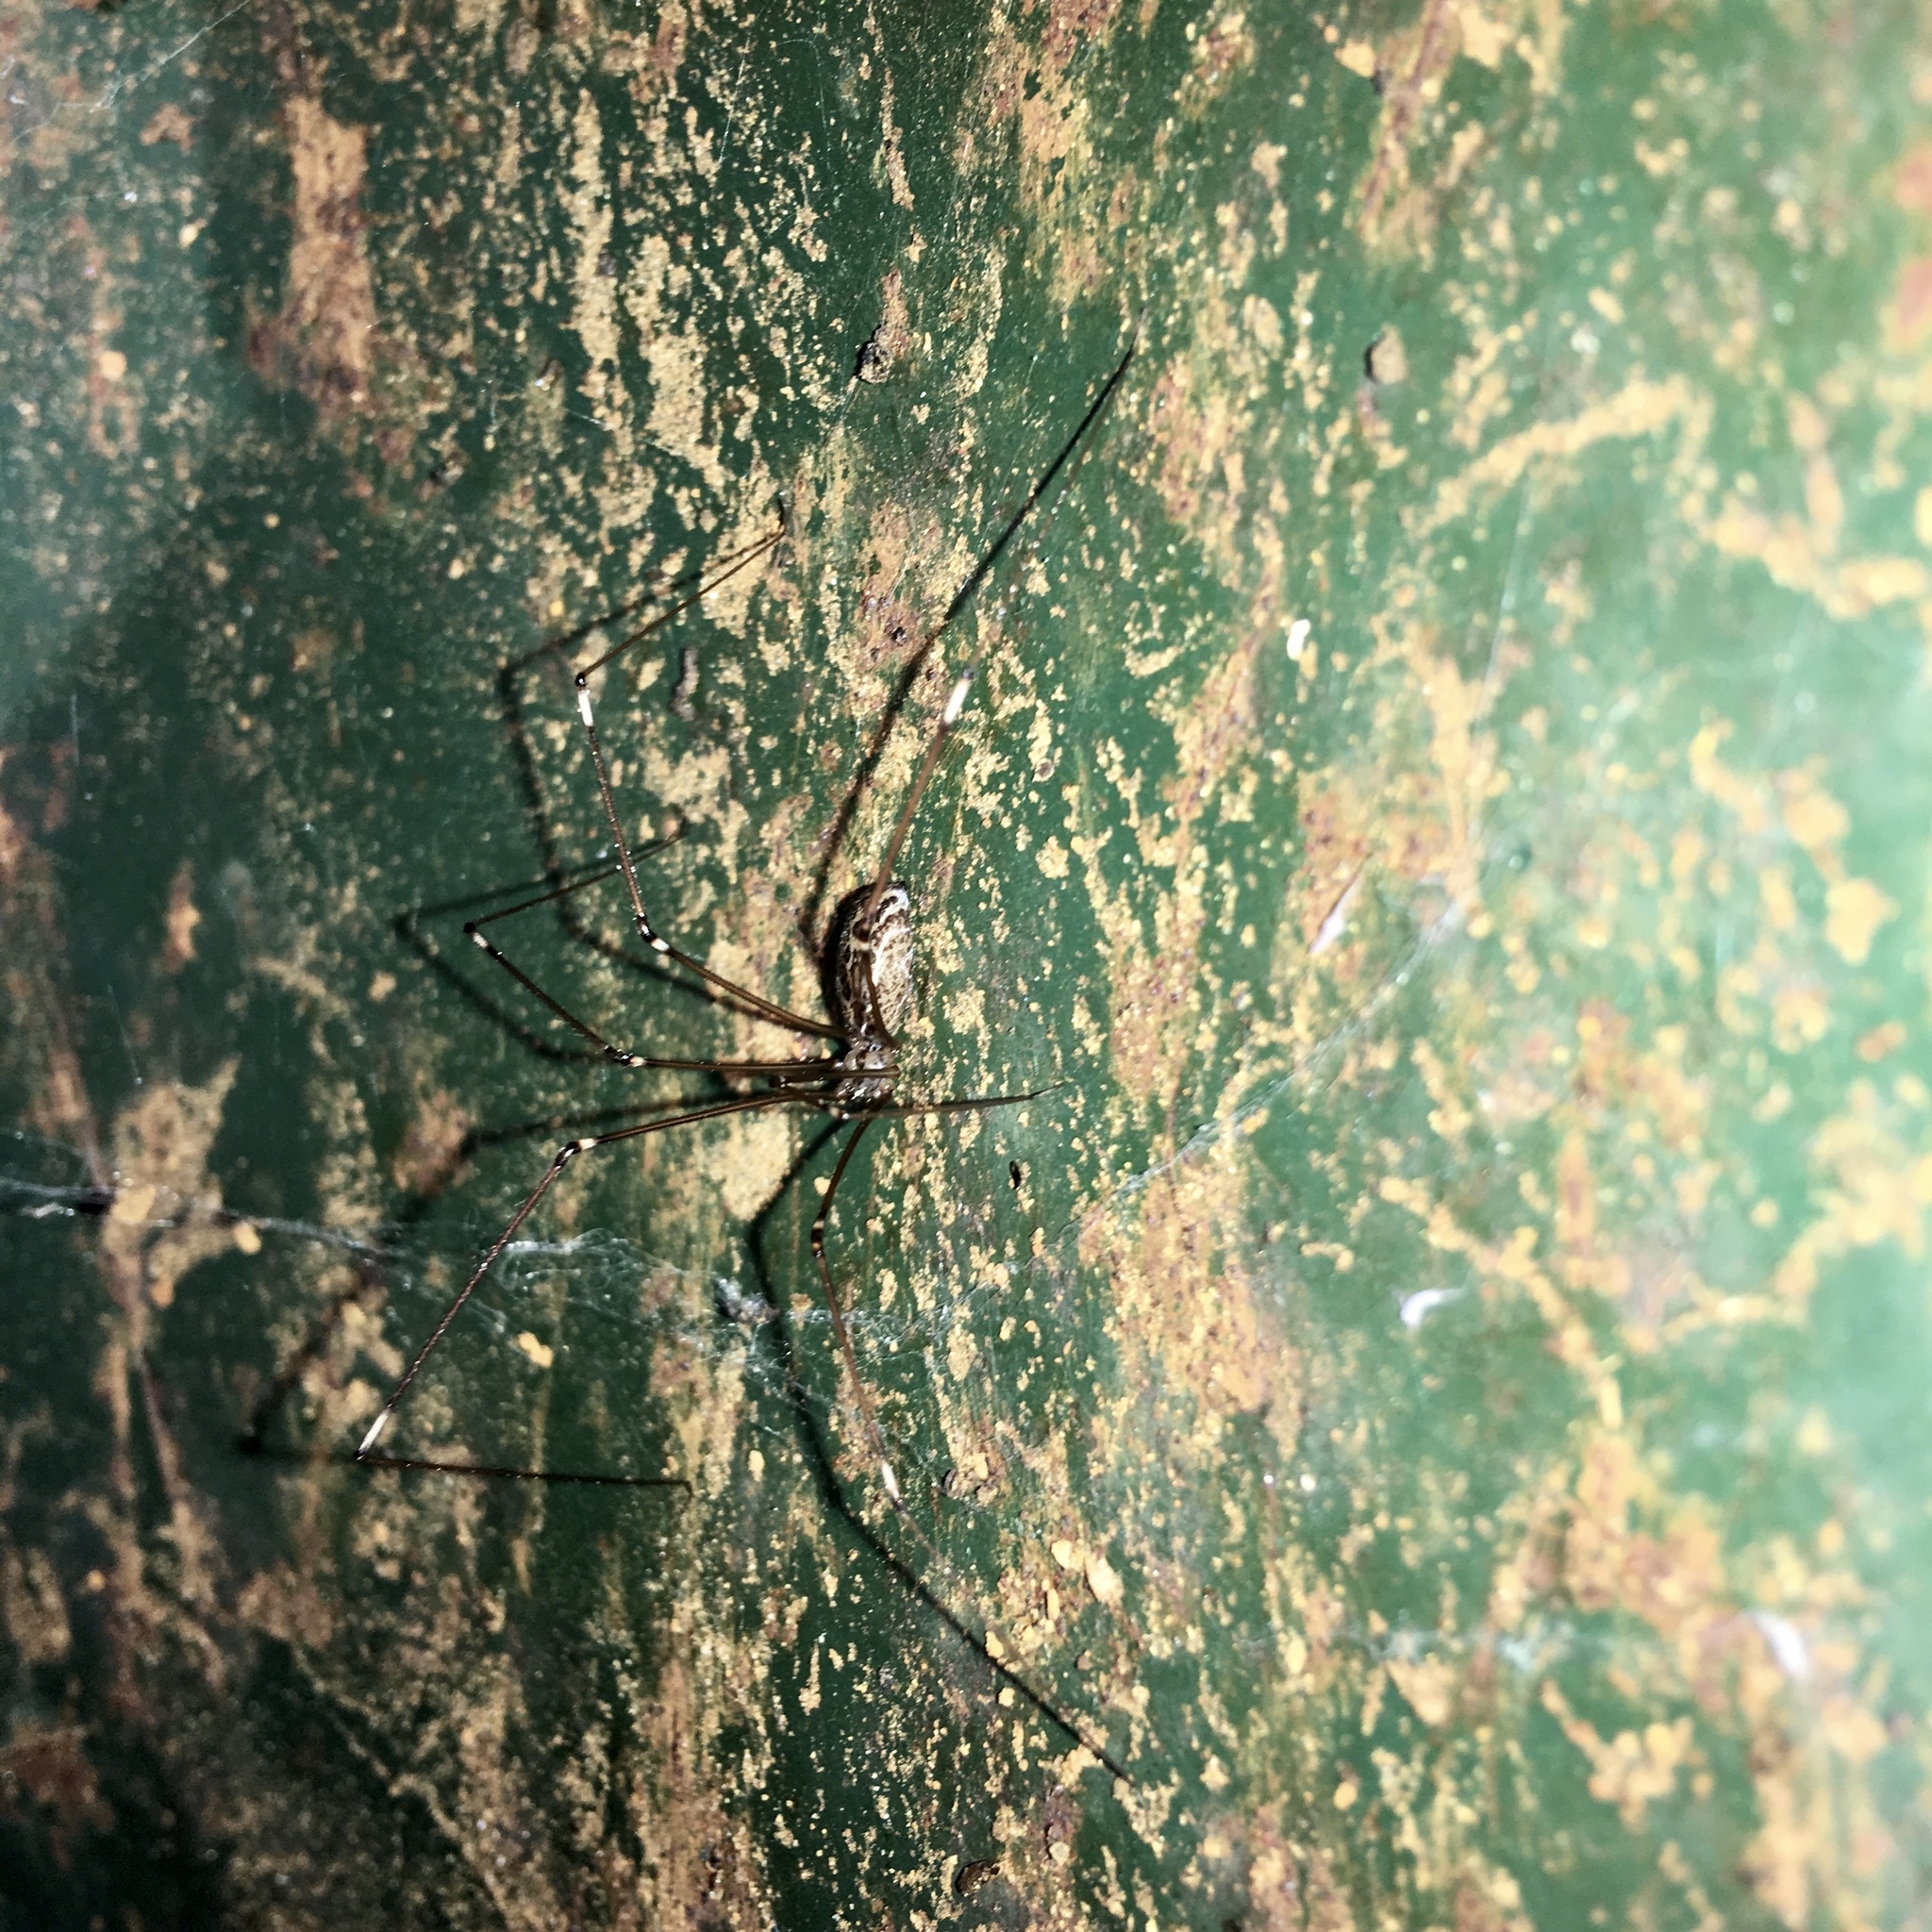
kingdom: Animalia
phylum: Arthropoda
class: Arachnida
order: Araneae
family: Pholcidae
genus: Holocnemus
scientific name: Holocnemus pluchei
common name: Marbled cellar spider
